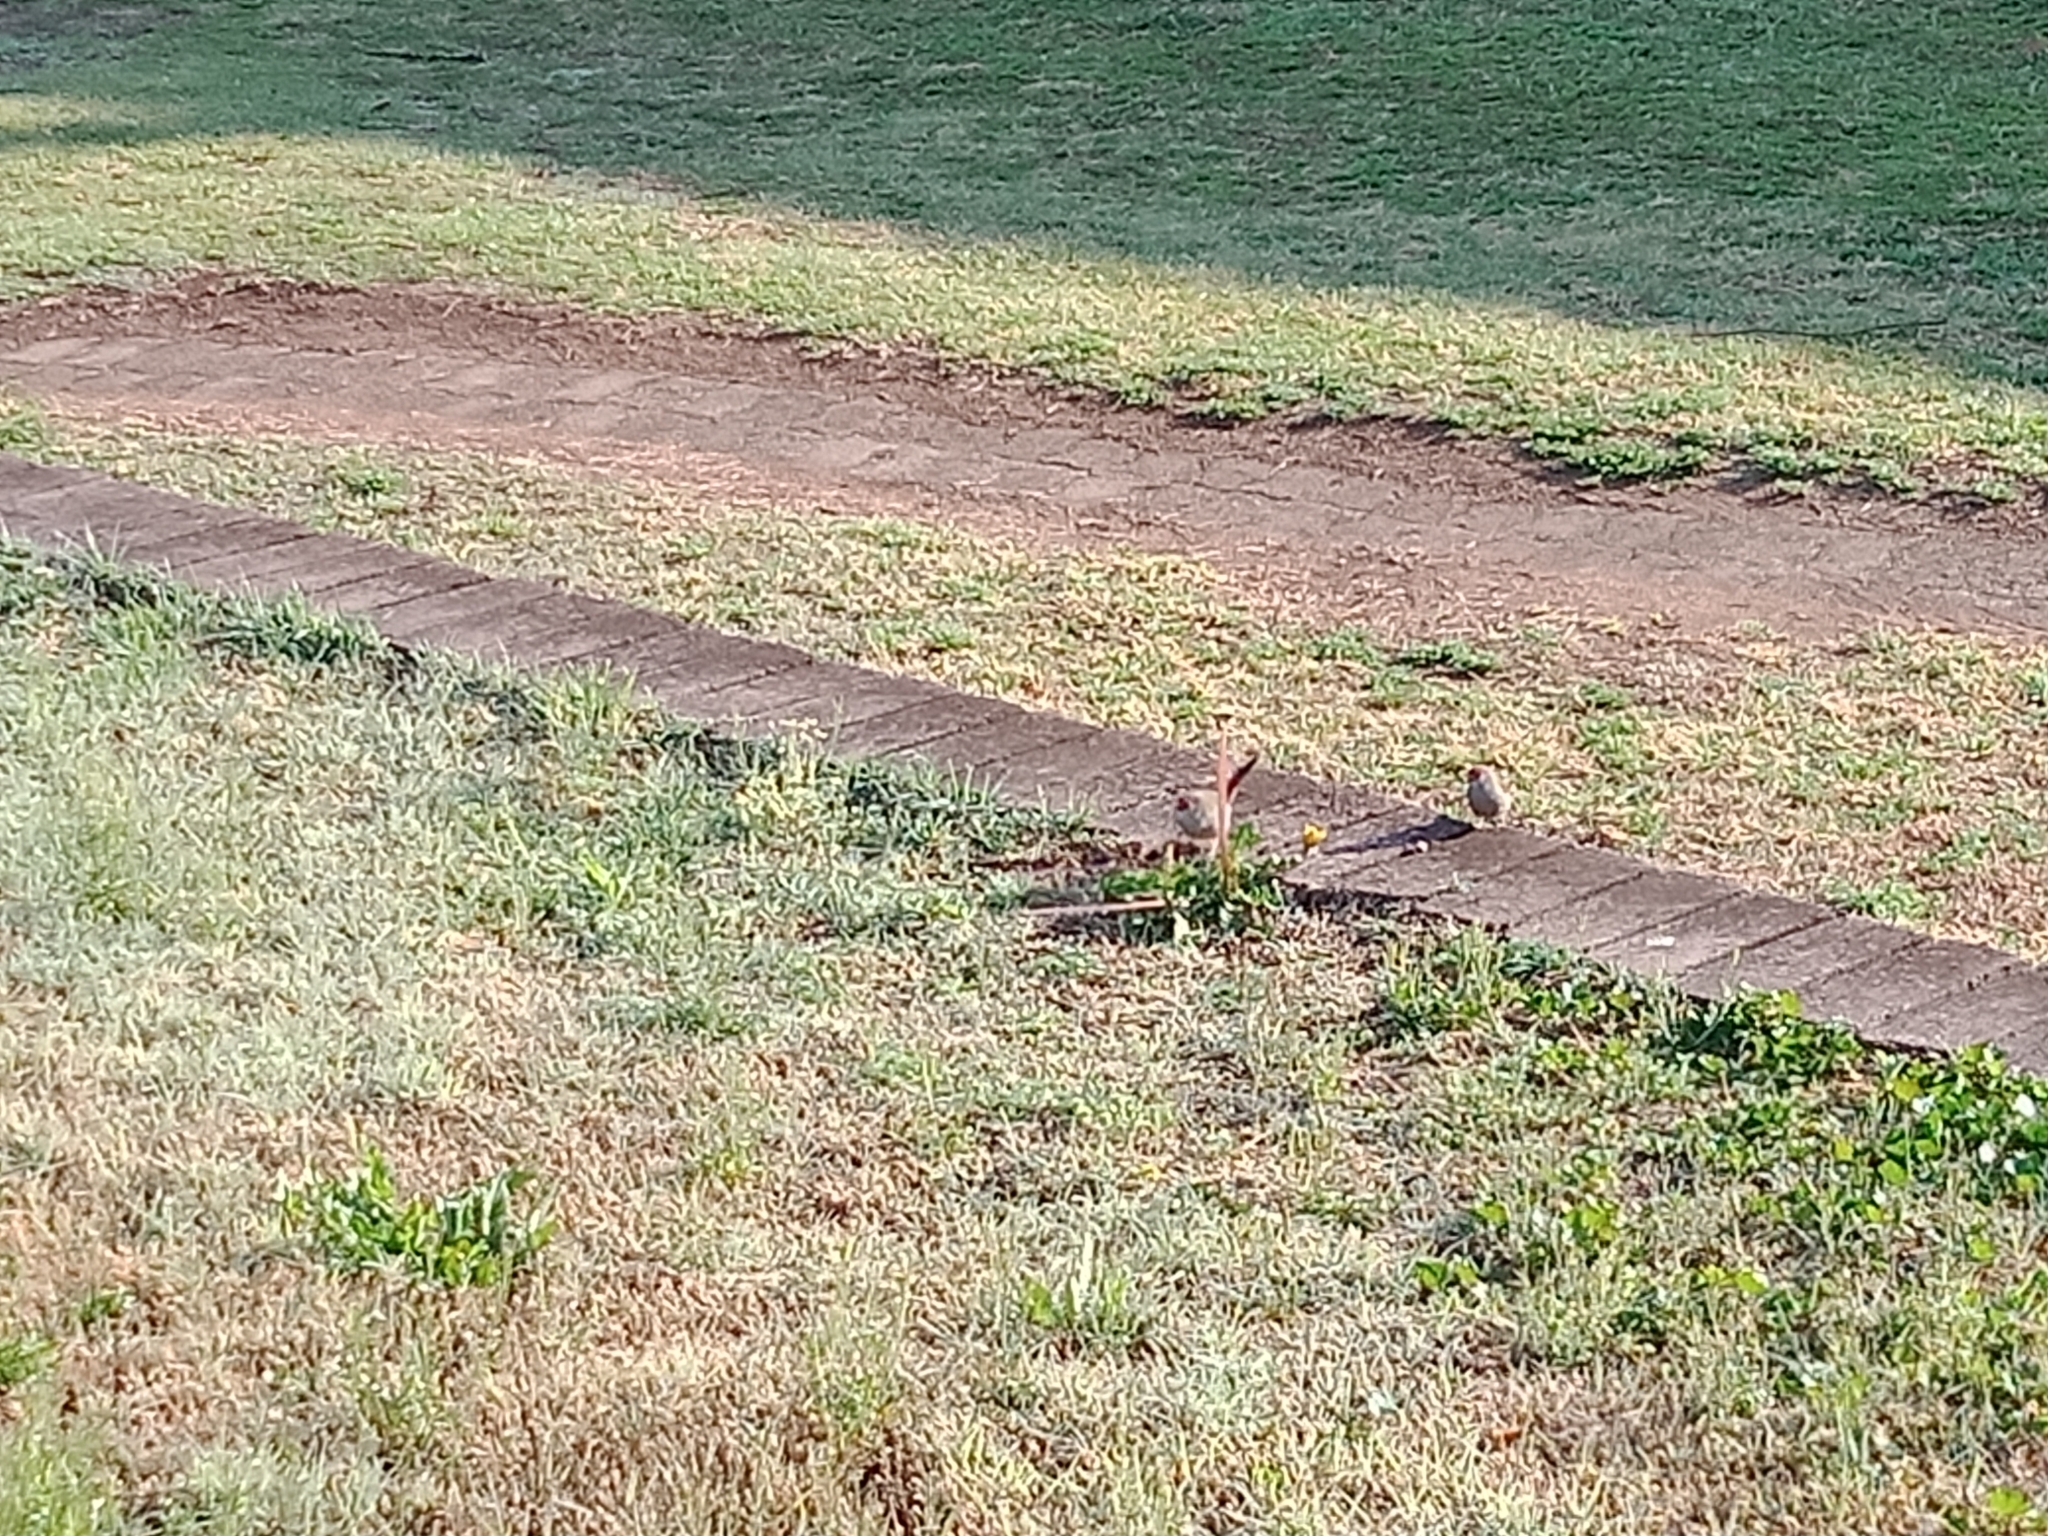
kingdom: Animalia
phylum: Chordata
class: Aves
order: Passeriformes
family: Estrildidae
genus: Neochmia
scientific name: Neochmia temporalis
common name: Red-browed finch
